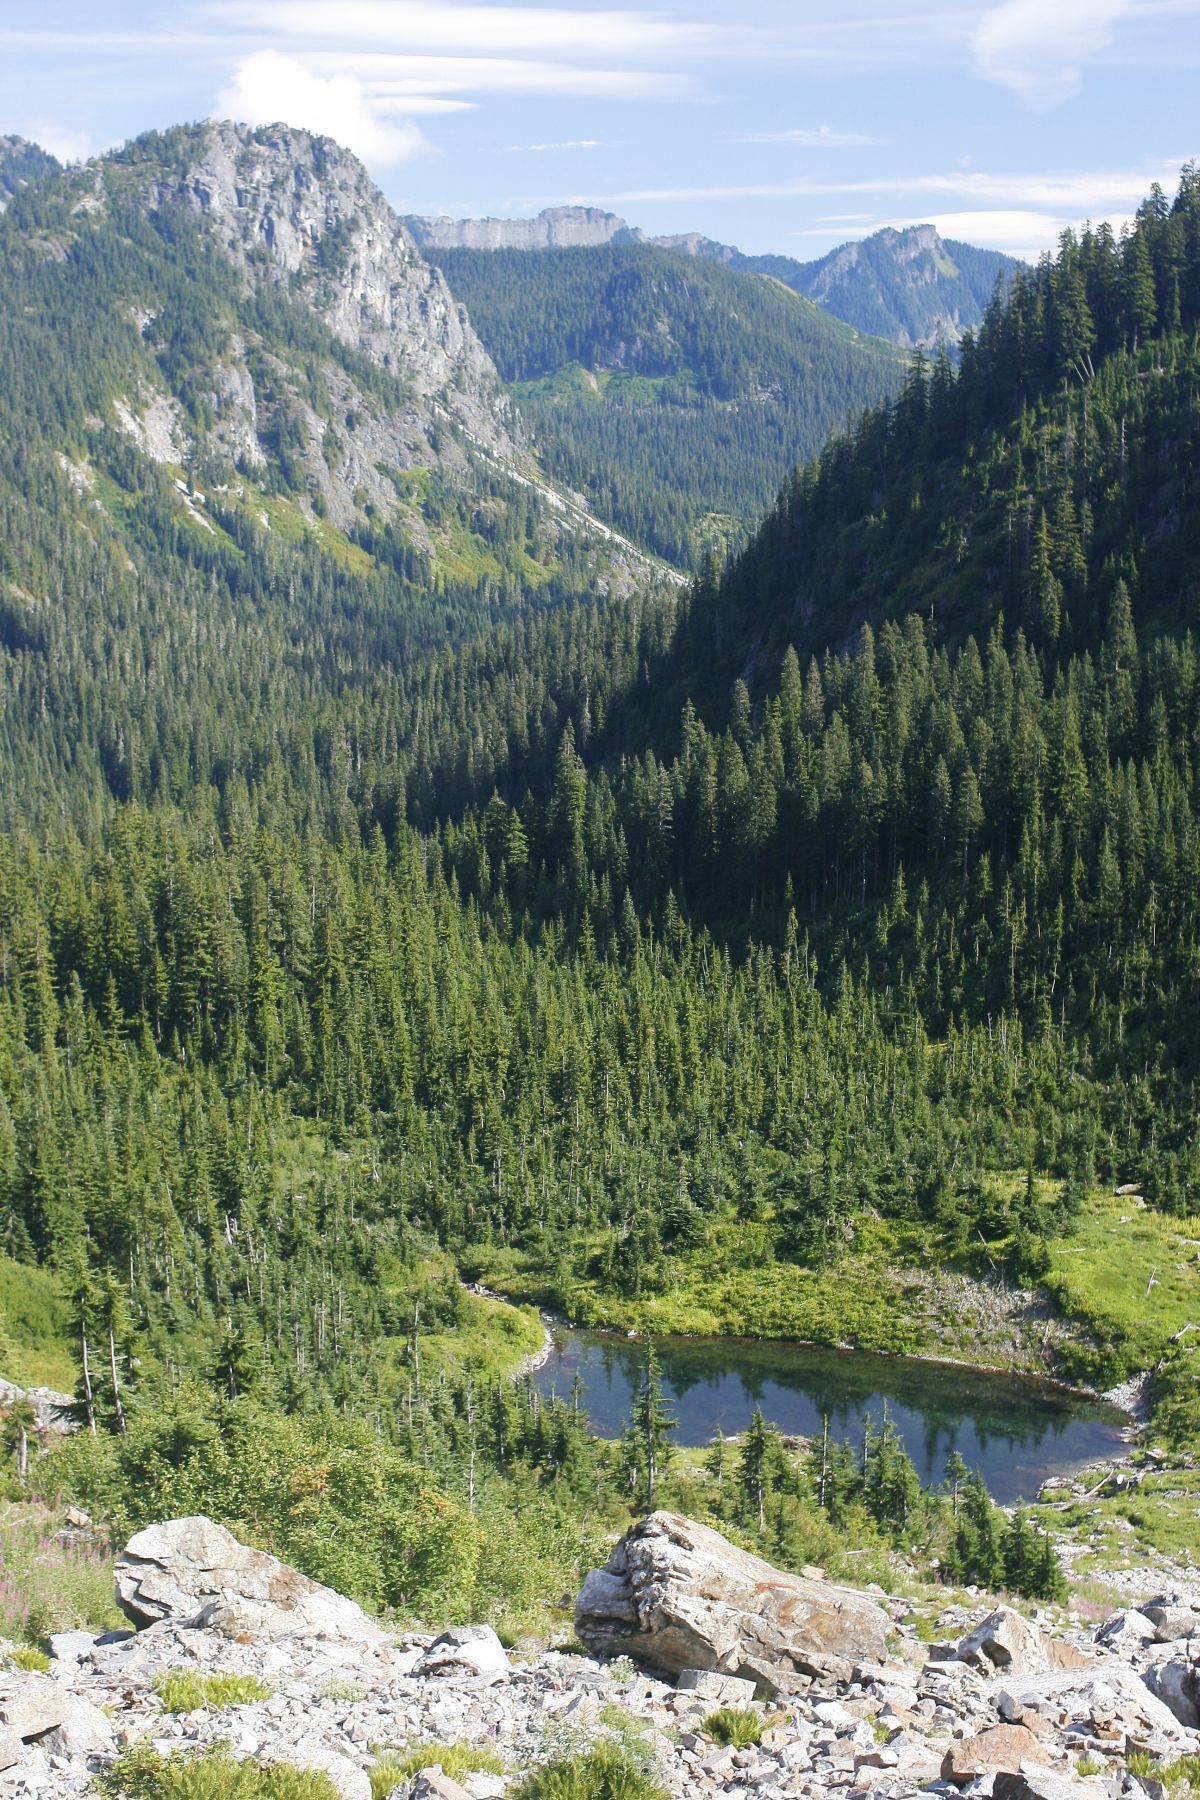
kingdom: Plantae
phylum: Tracheophyta
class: Polypodiopsida
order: Polypodiales
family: Pteridaceae
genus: Cryptogramma
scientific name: Cryptogramma cascadensis
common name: Cascade parsley fern
